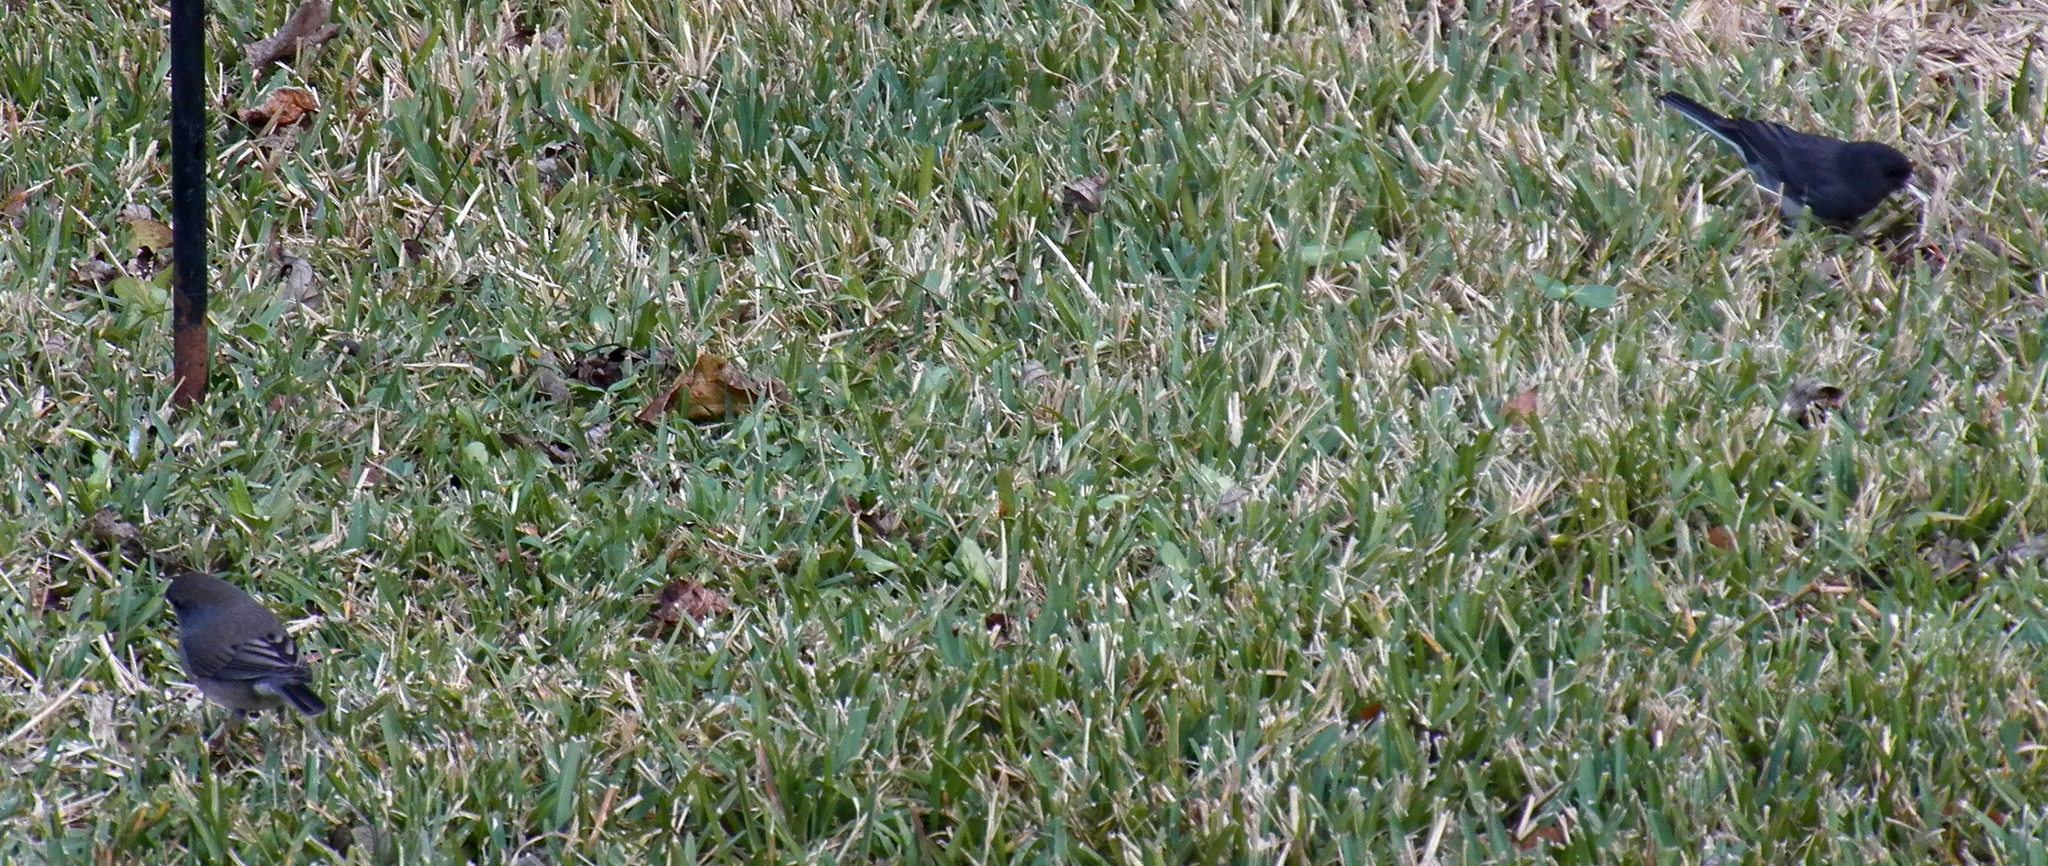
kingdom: Animalia
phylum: Chordata
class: Aves
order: Passeriformes
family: Passerellidae
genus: Junco
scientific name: Junco hyemalis
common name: Dark-eyed junco
